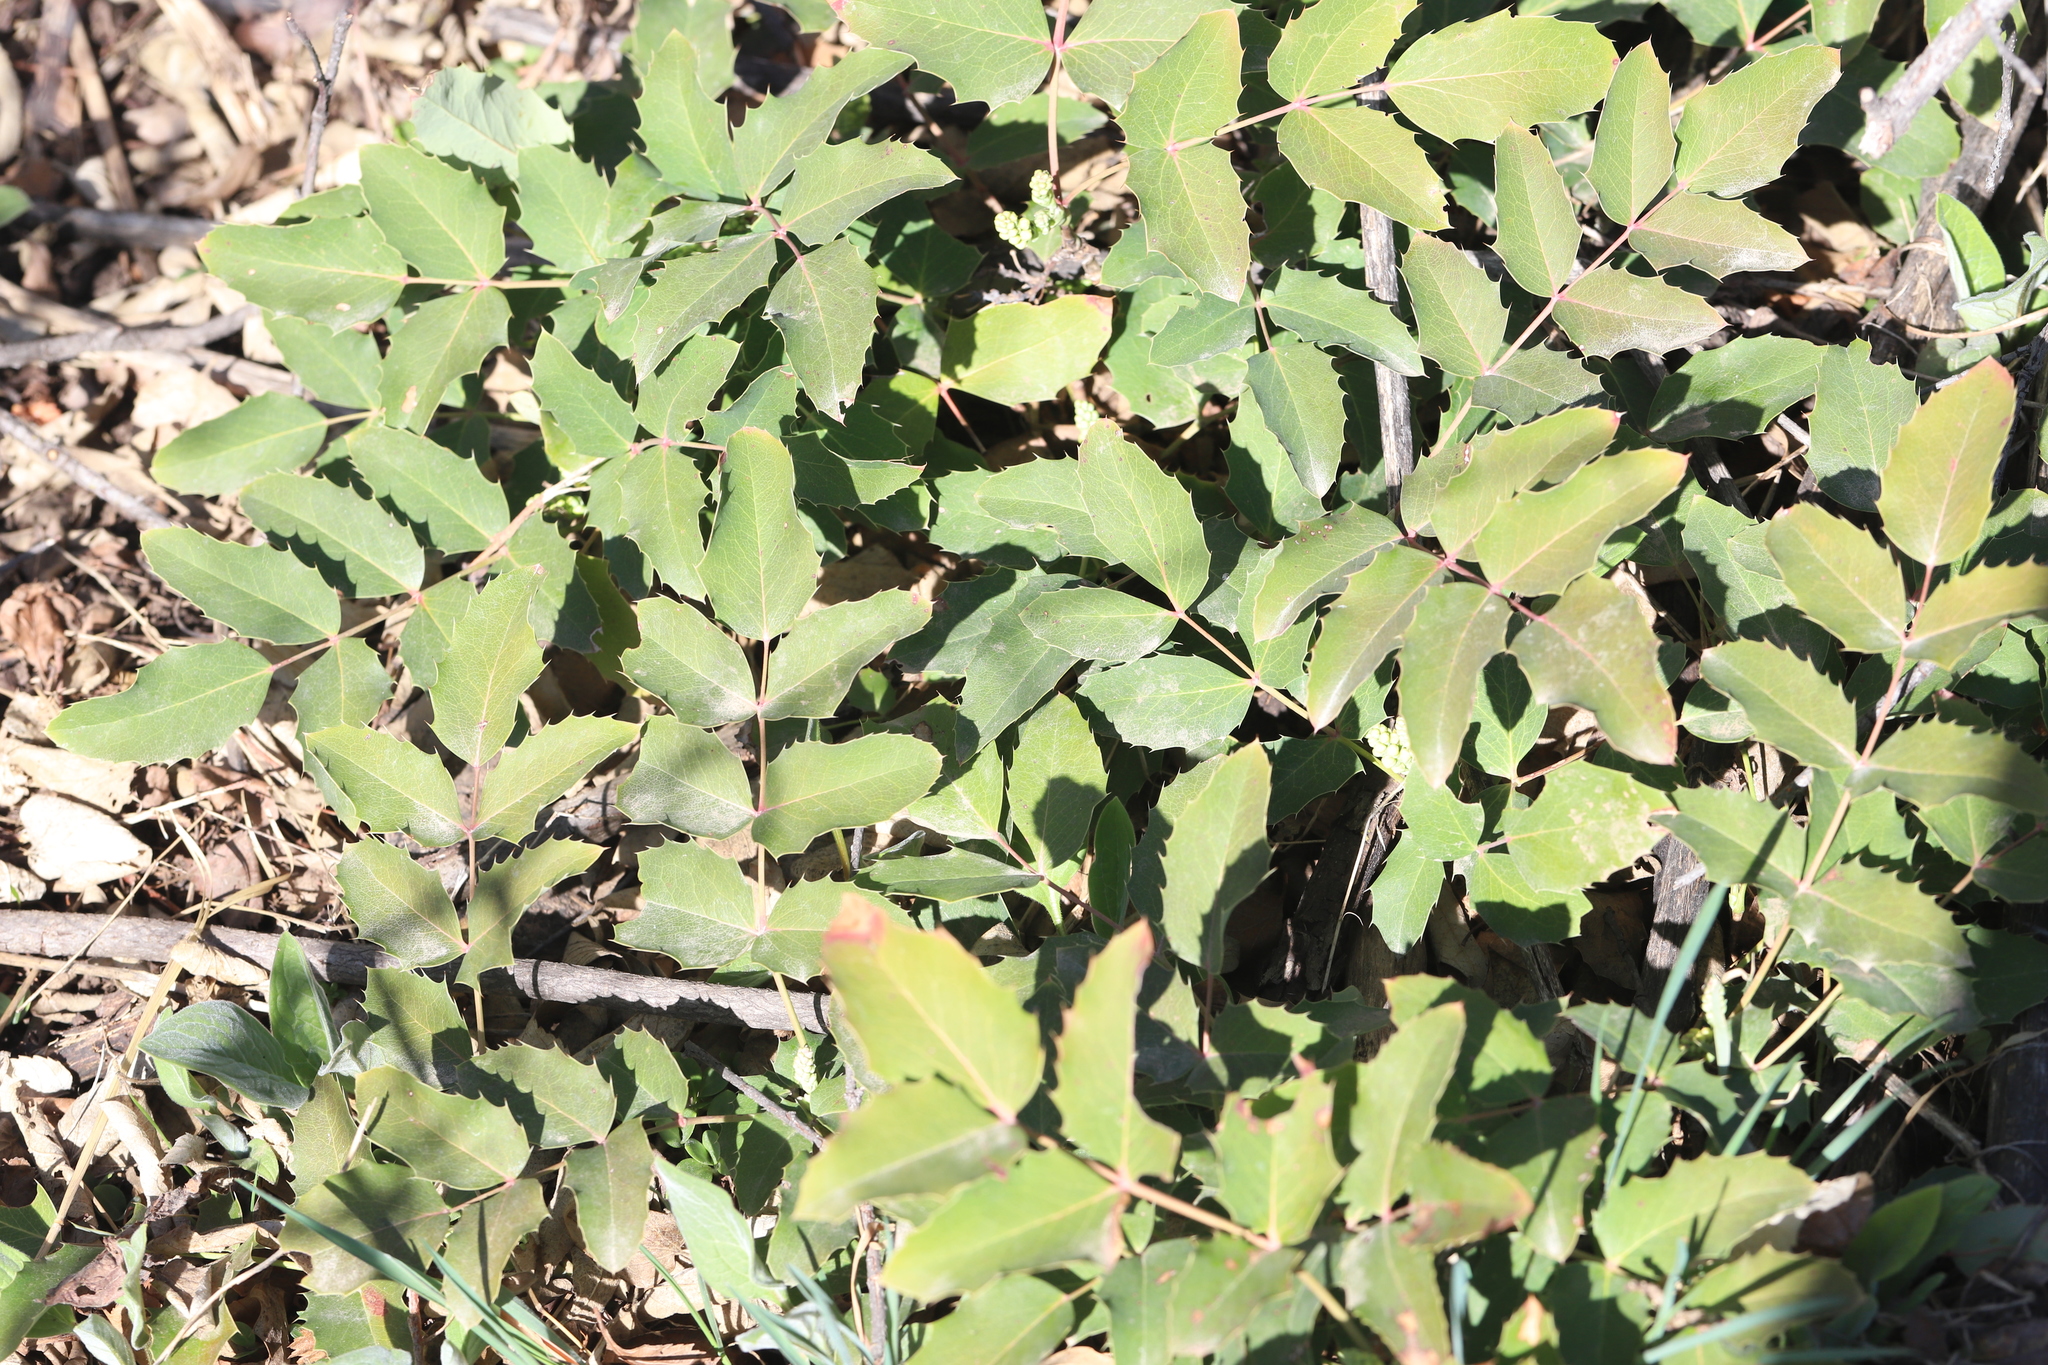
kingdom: Plantae
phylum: Tracheophyta
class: Magnoliopsida
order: Ranunculales
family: Berberidaceae
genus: Mahonia
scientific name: Mahonia repens
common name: Creeping oregon-grape
